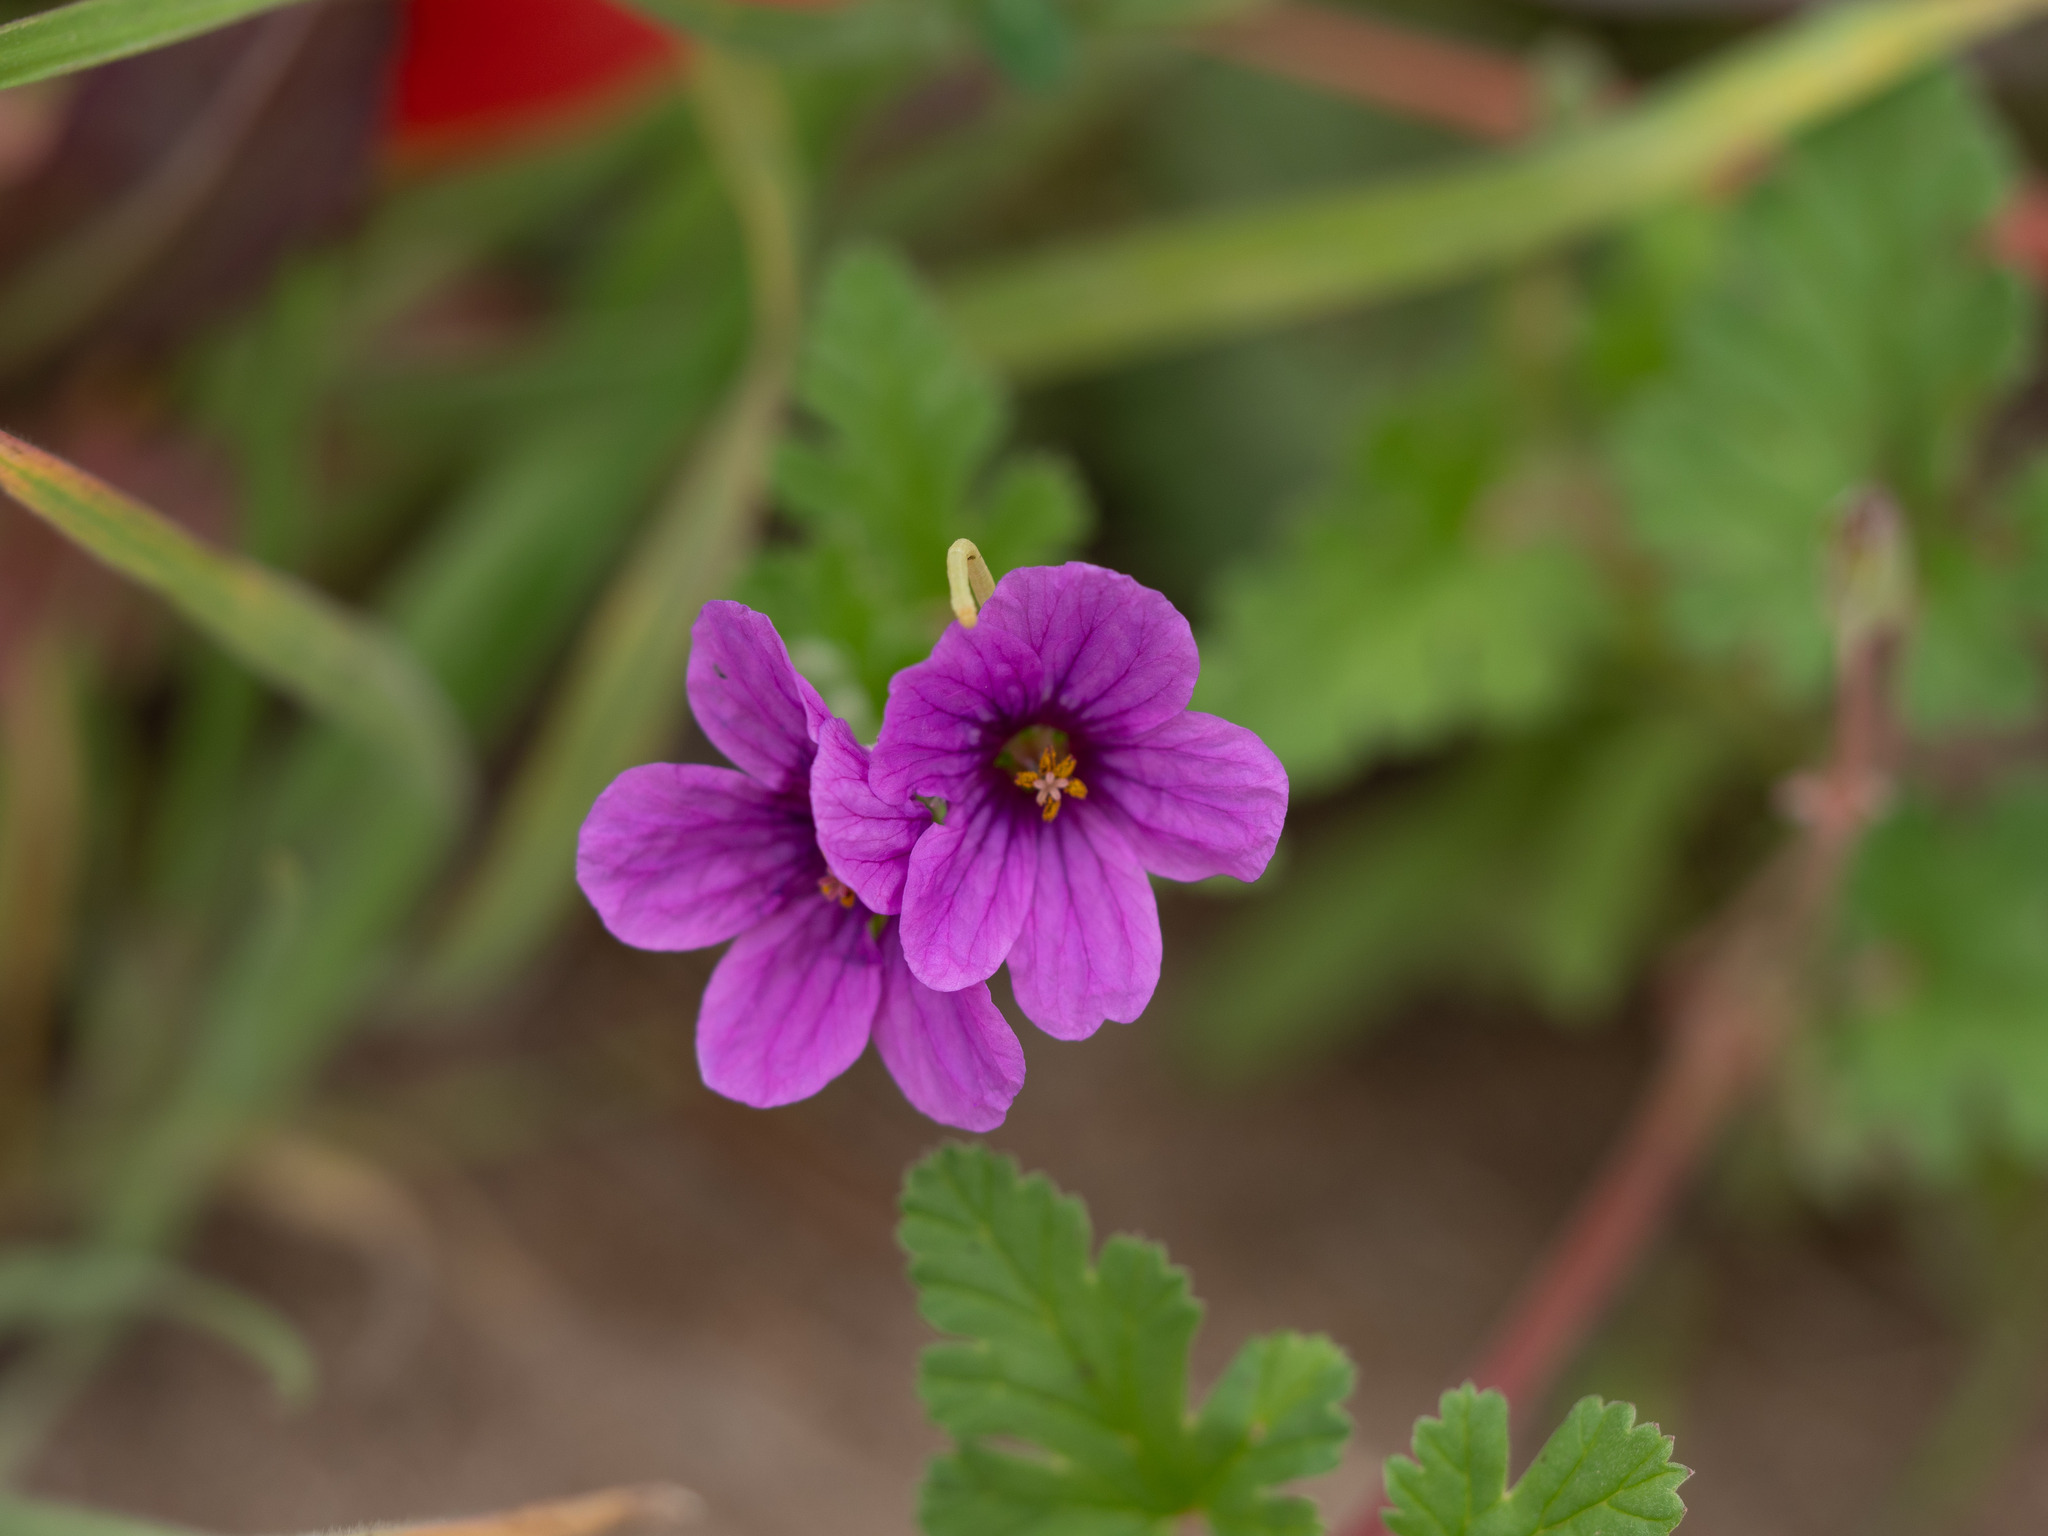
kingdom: Plantae
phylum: Tracheophyta
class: Magnoliopsida
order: Geraniales
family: Geraniaceae
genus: Erodium
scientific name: Erodium texanum
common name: Texas stork's-bill
